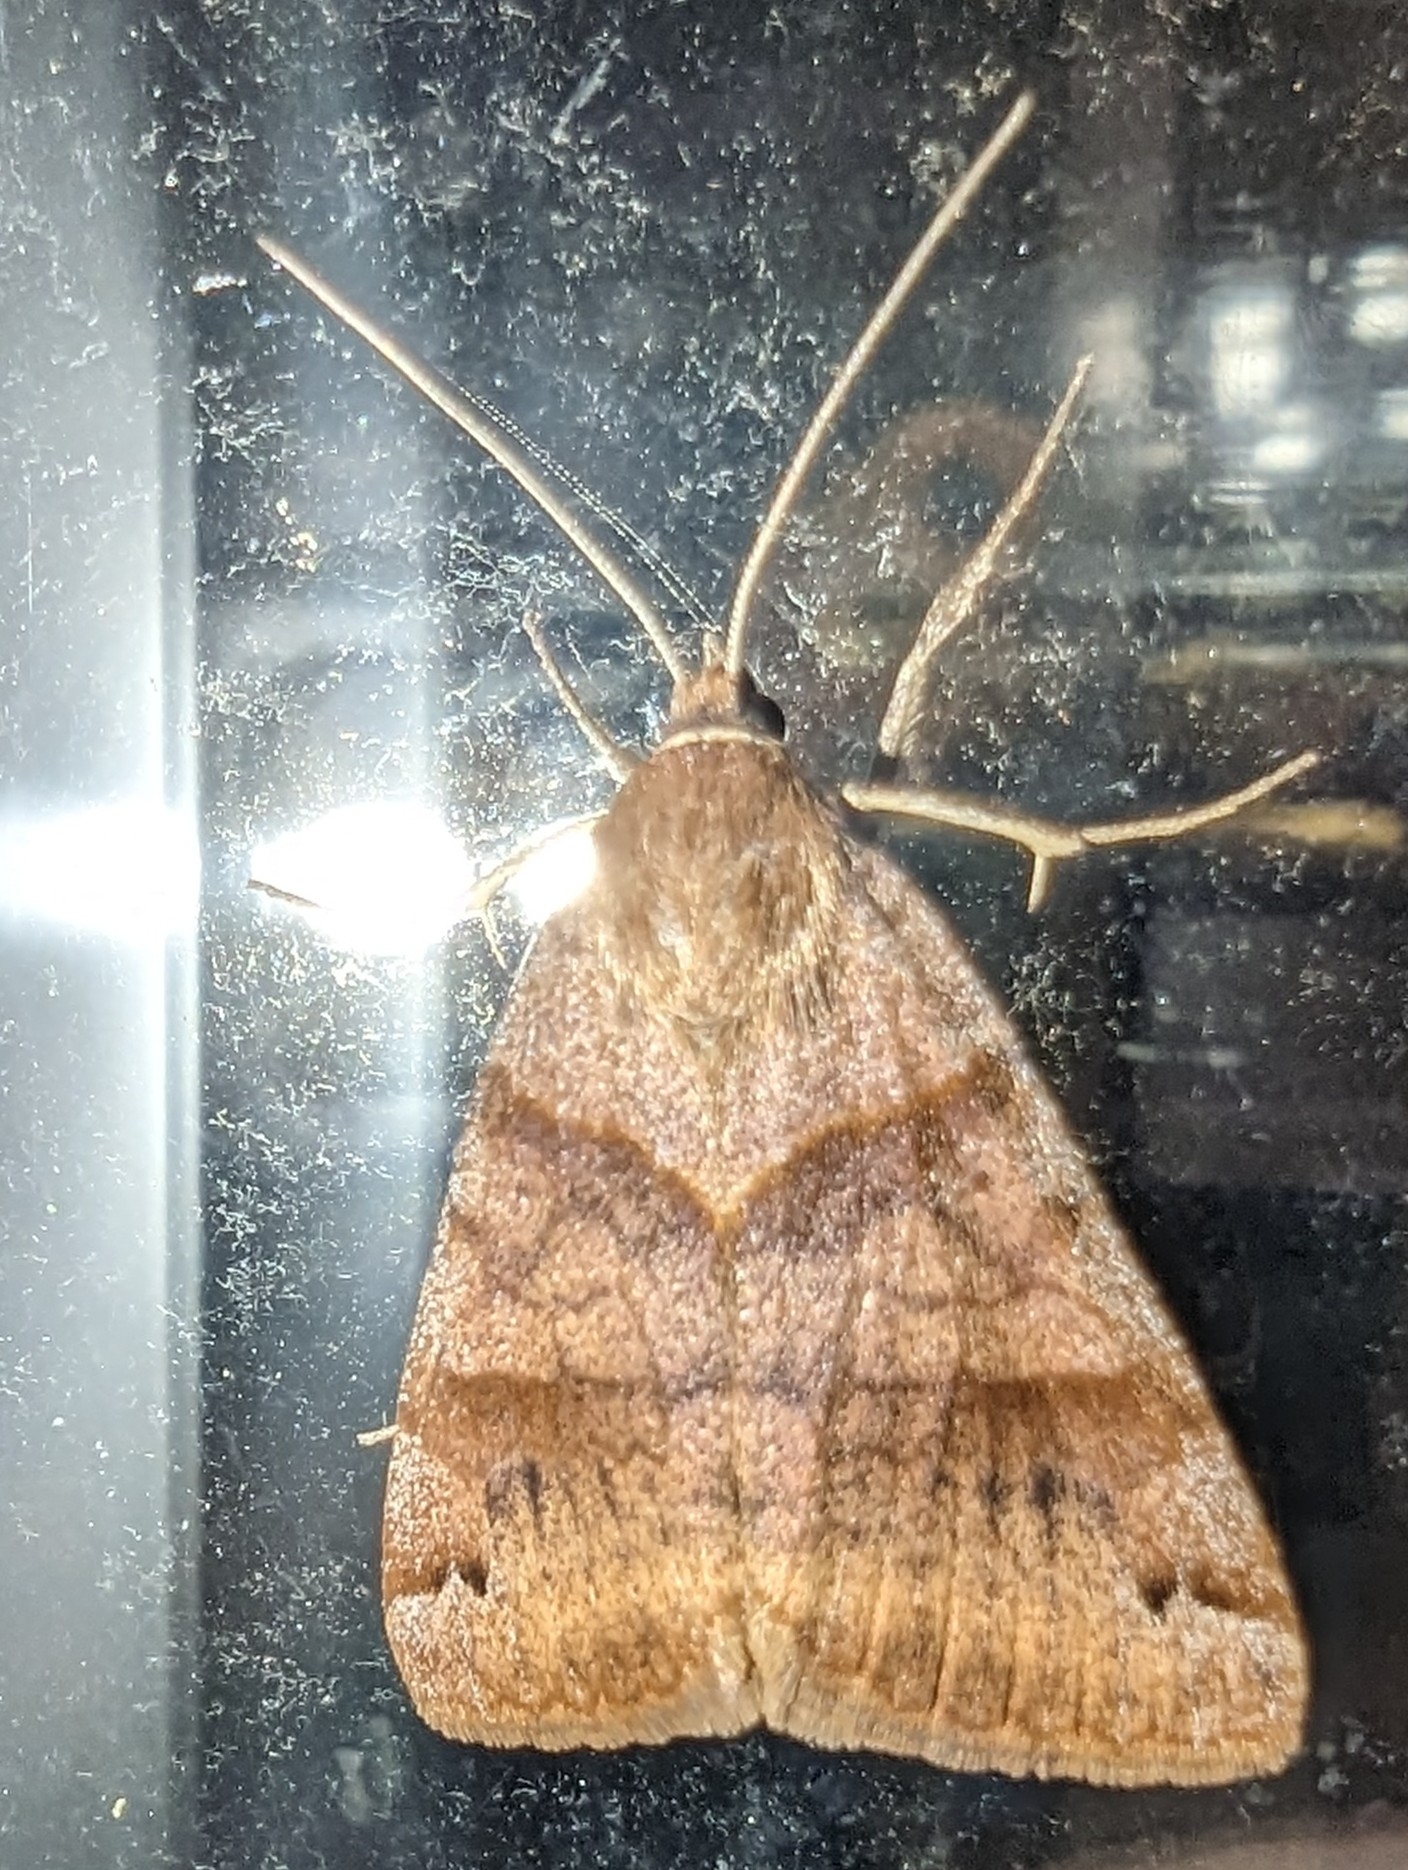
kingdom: Animalia
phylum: Arthropoda
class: Insecta
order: Lepidoptera
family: Erebidae
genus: Caenurgina
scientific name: Caenurgina crassiuscula
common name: Double-barred
